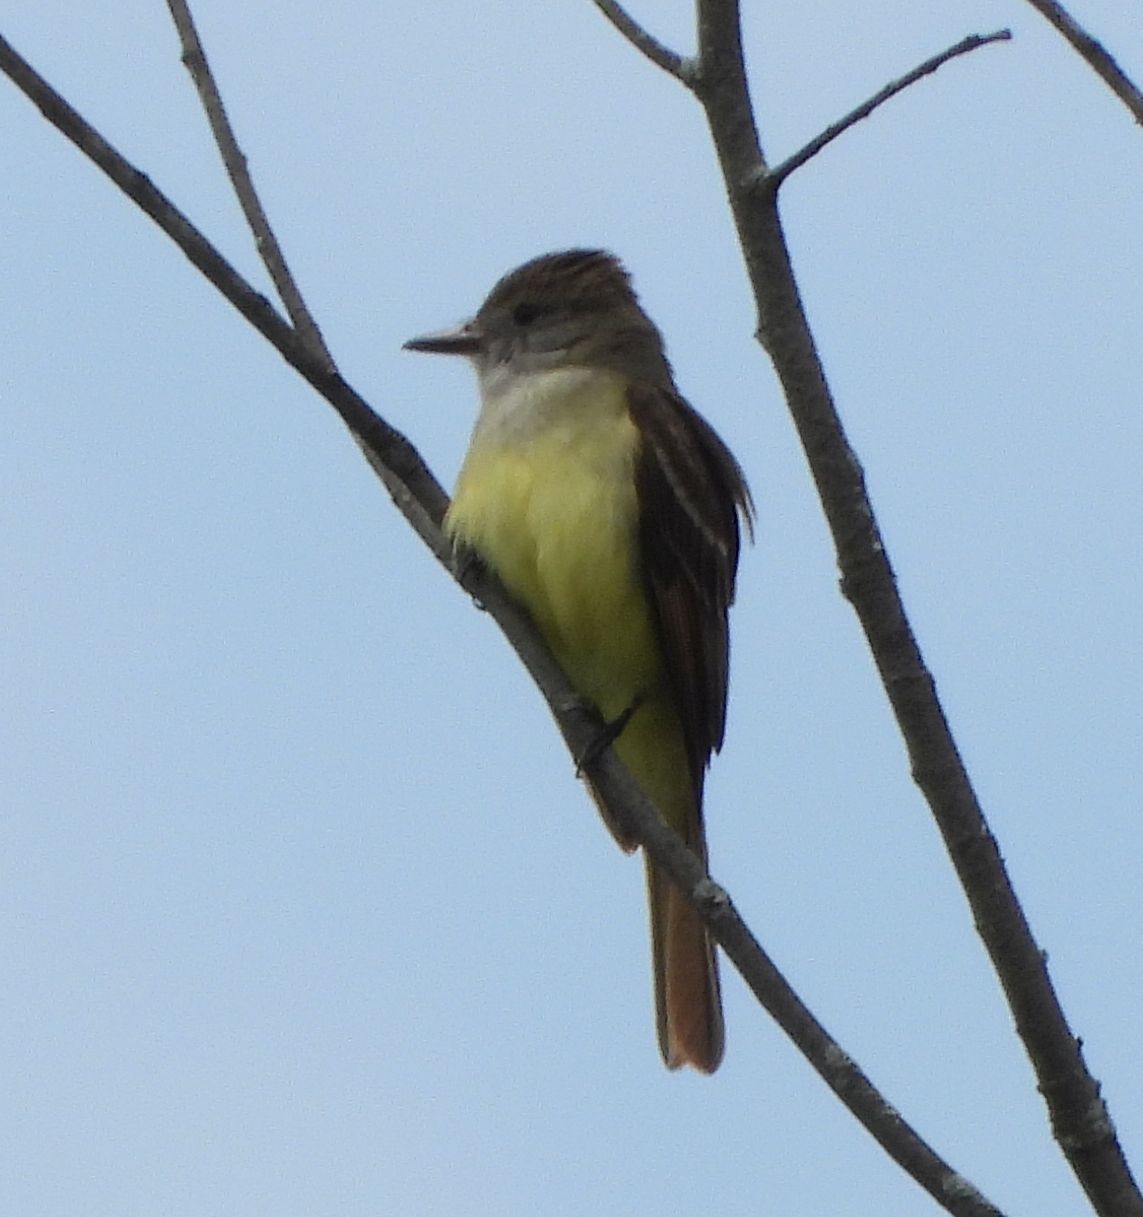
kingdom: Animalia
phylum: Chordata
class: Aves
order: Passeriformes
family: Tyrannidae
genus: Myiarchus
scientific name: Myiarchus crinitus
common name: Great crested flycatcher
